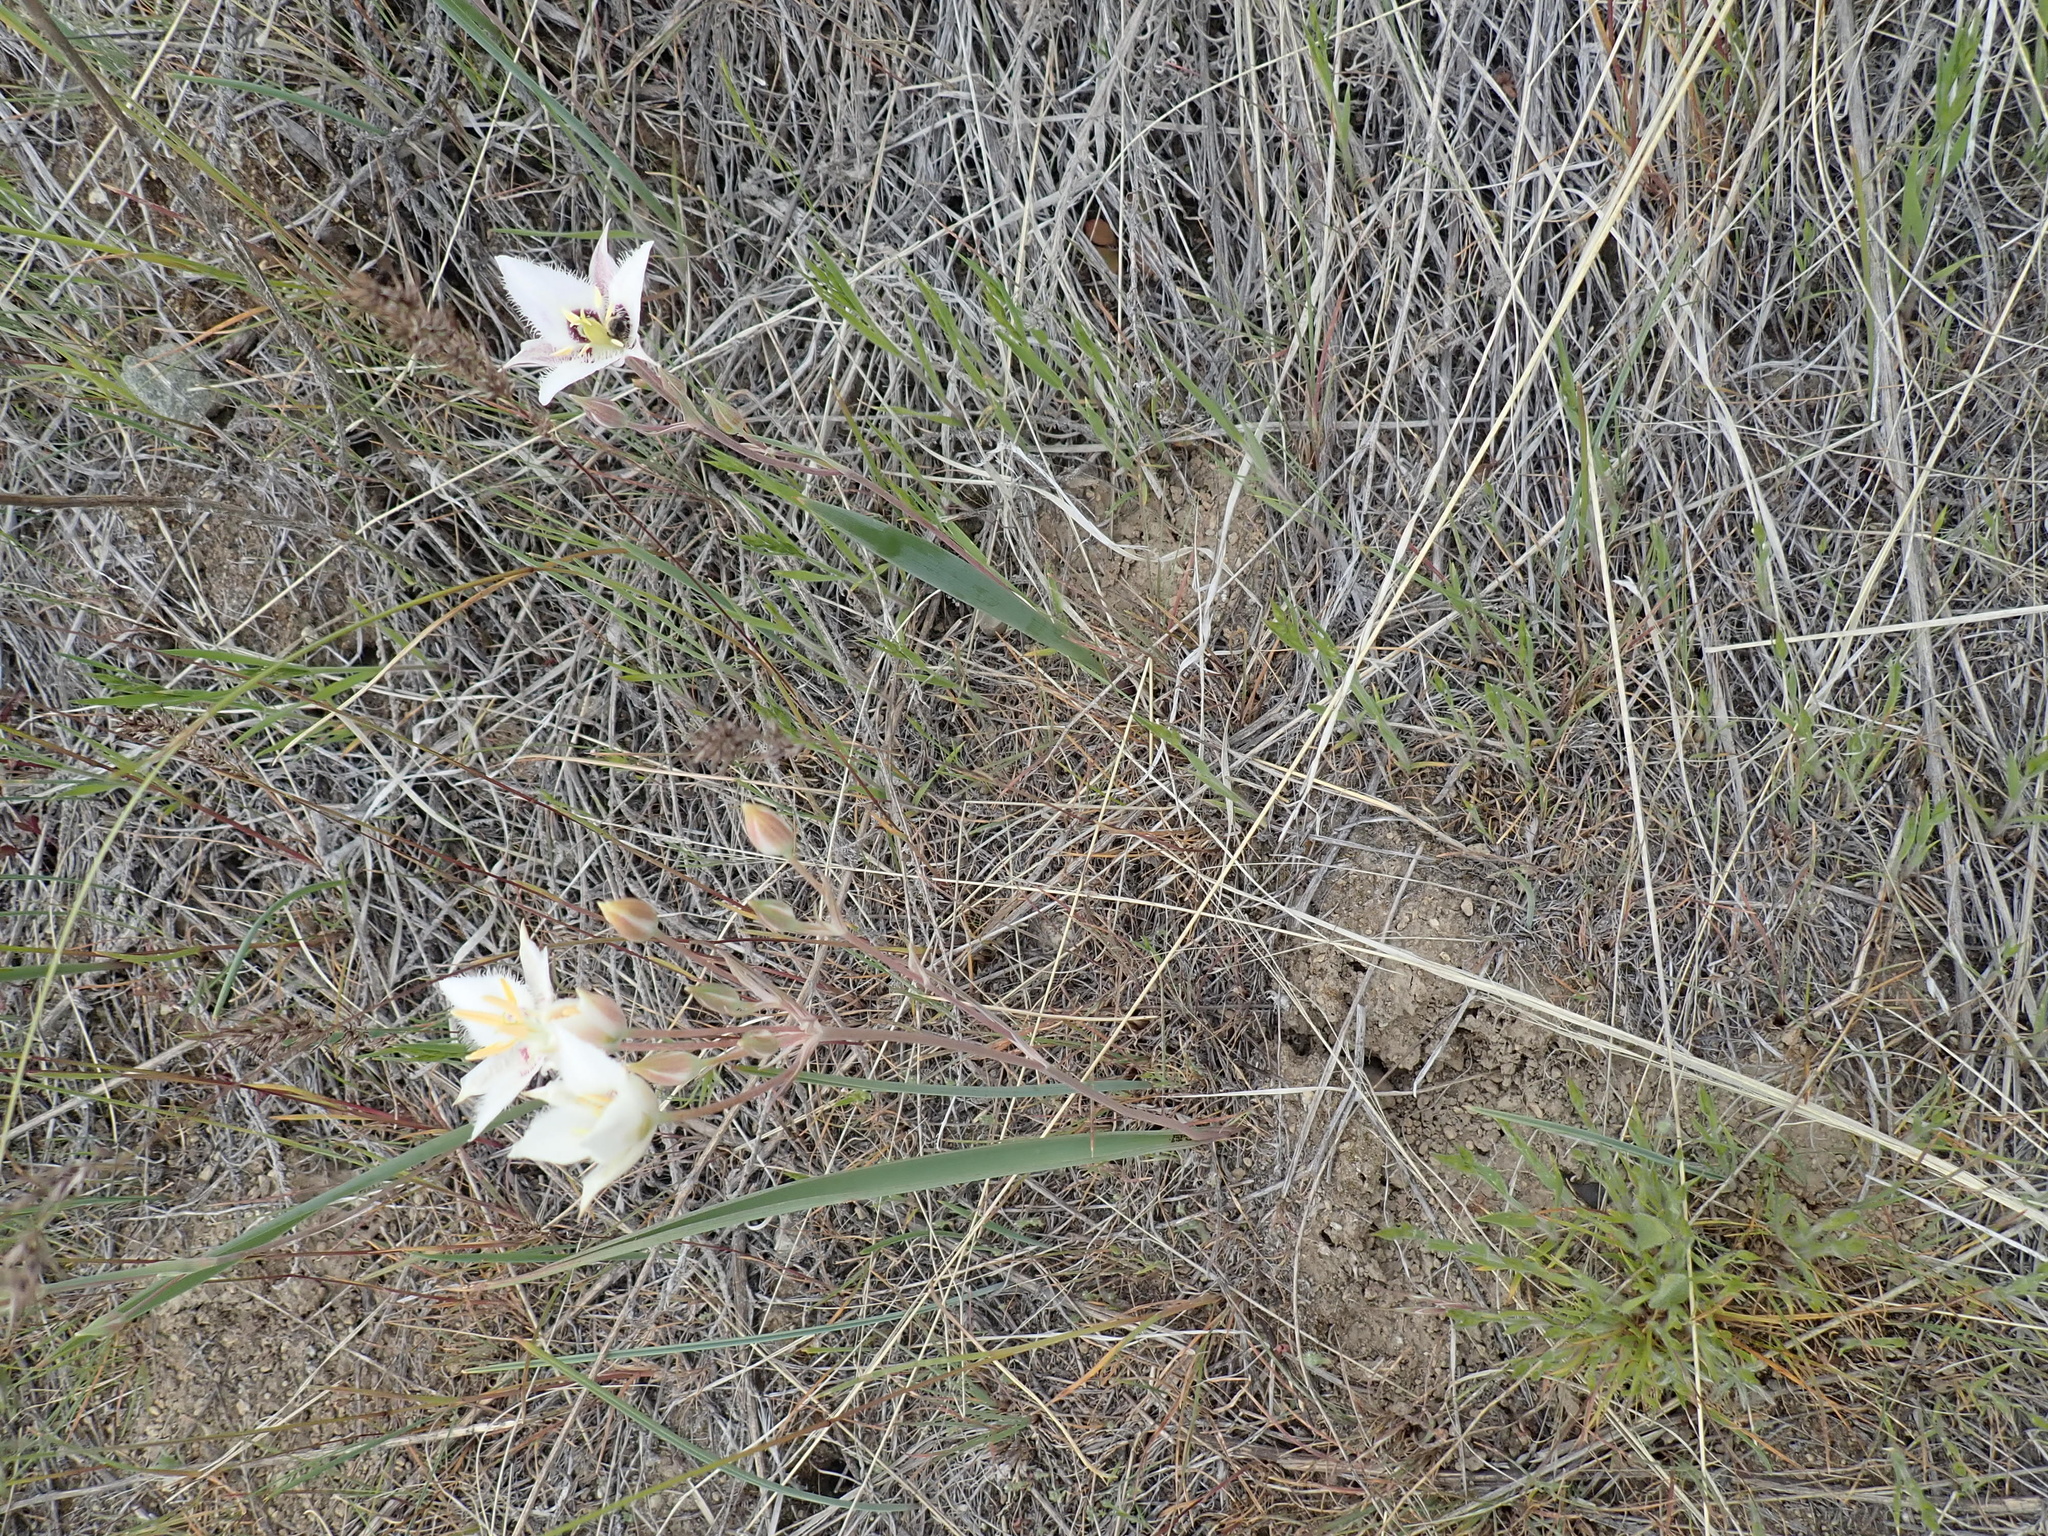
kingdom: Plantae
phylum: Tracheophyta
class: Liliopsida
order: Liliales
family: Liliaceae
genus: Calochortus
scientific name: Calochortus lyallii
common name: Lyall's mariposa lily
